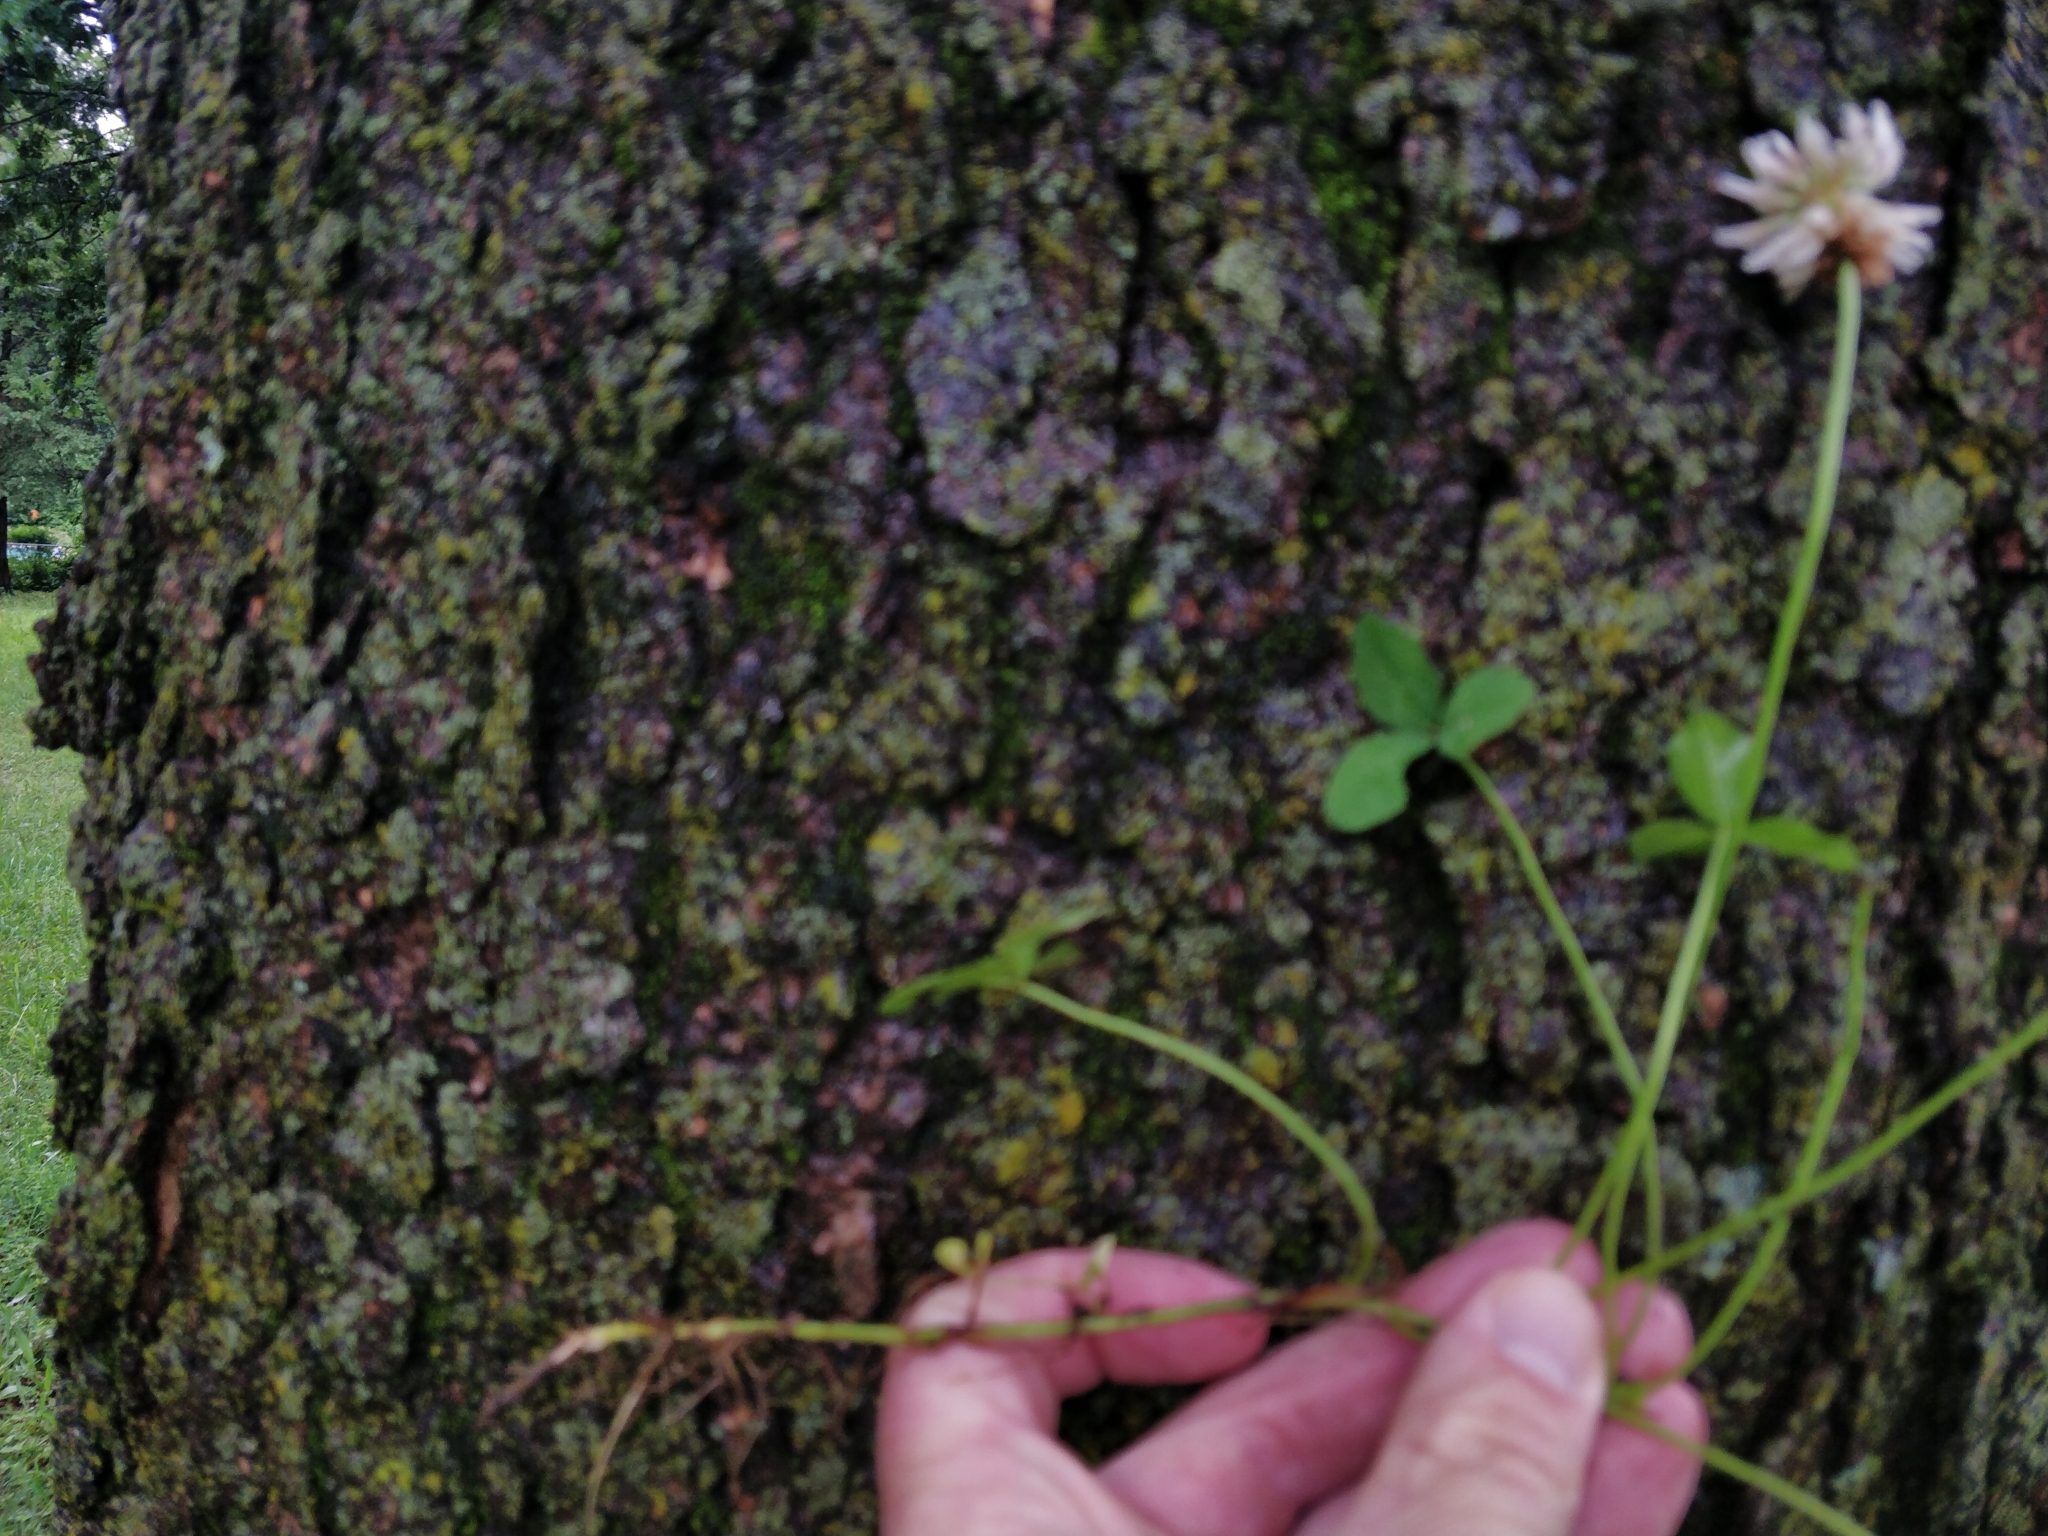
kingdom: Plantae
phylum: Tracheophyta
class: Magnoliopsida
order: Fabales
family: Fabaceae
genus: Trifolium
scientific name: Trifolium repens
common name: White clover
